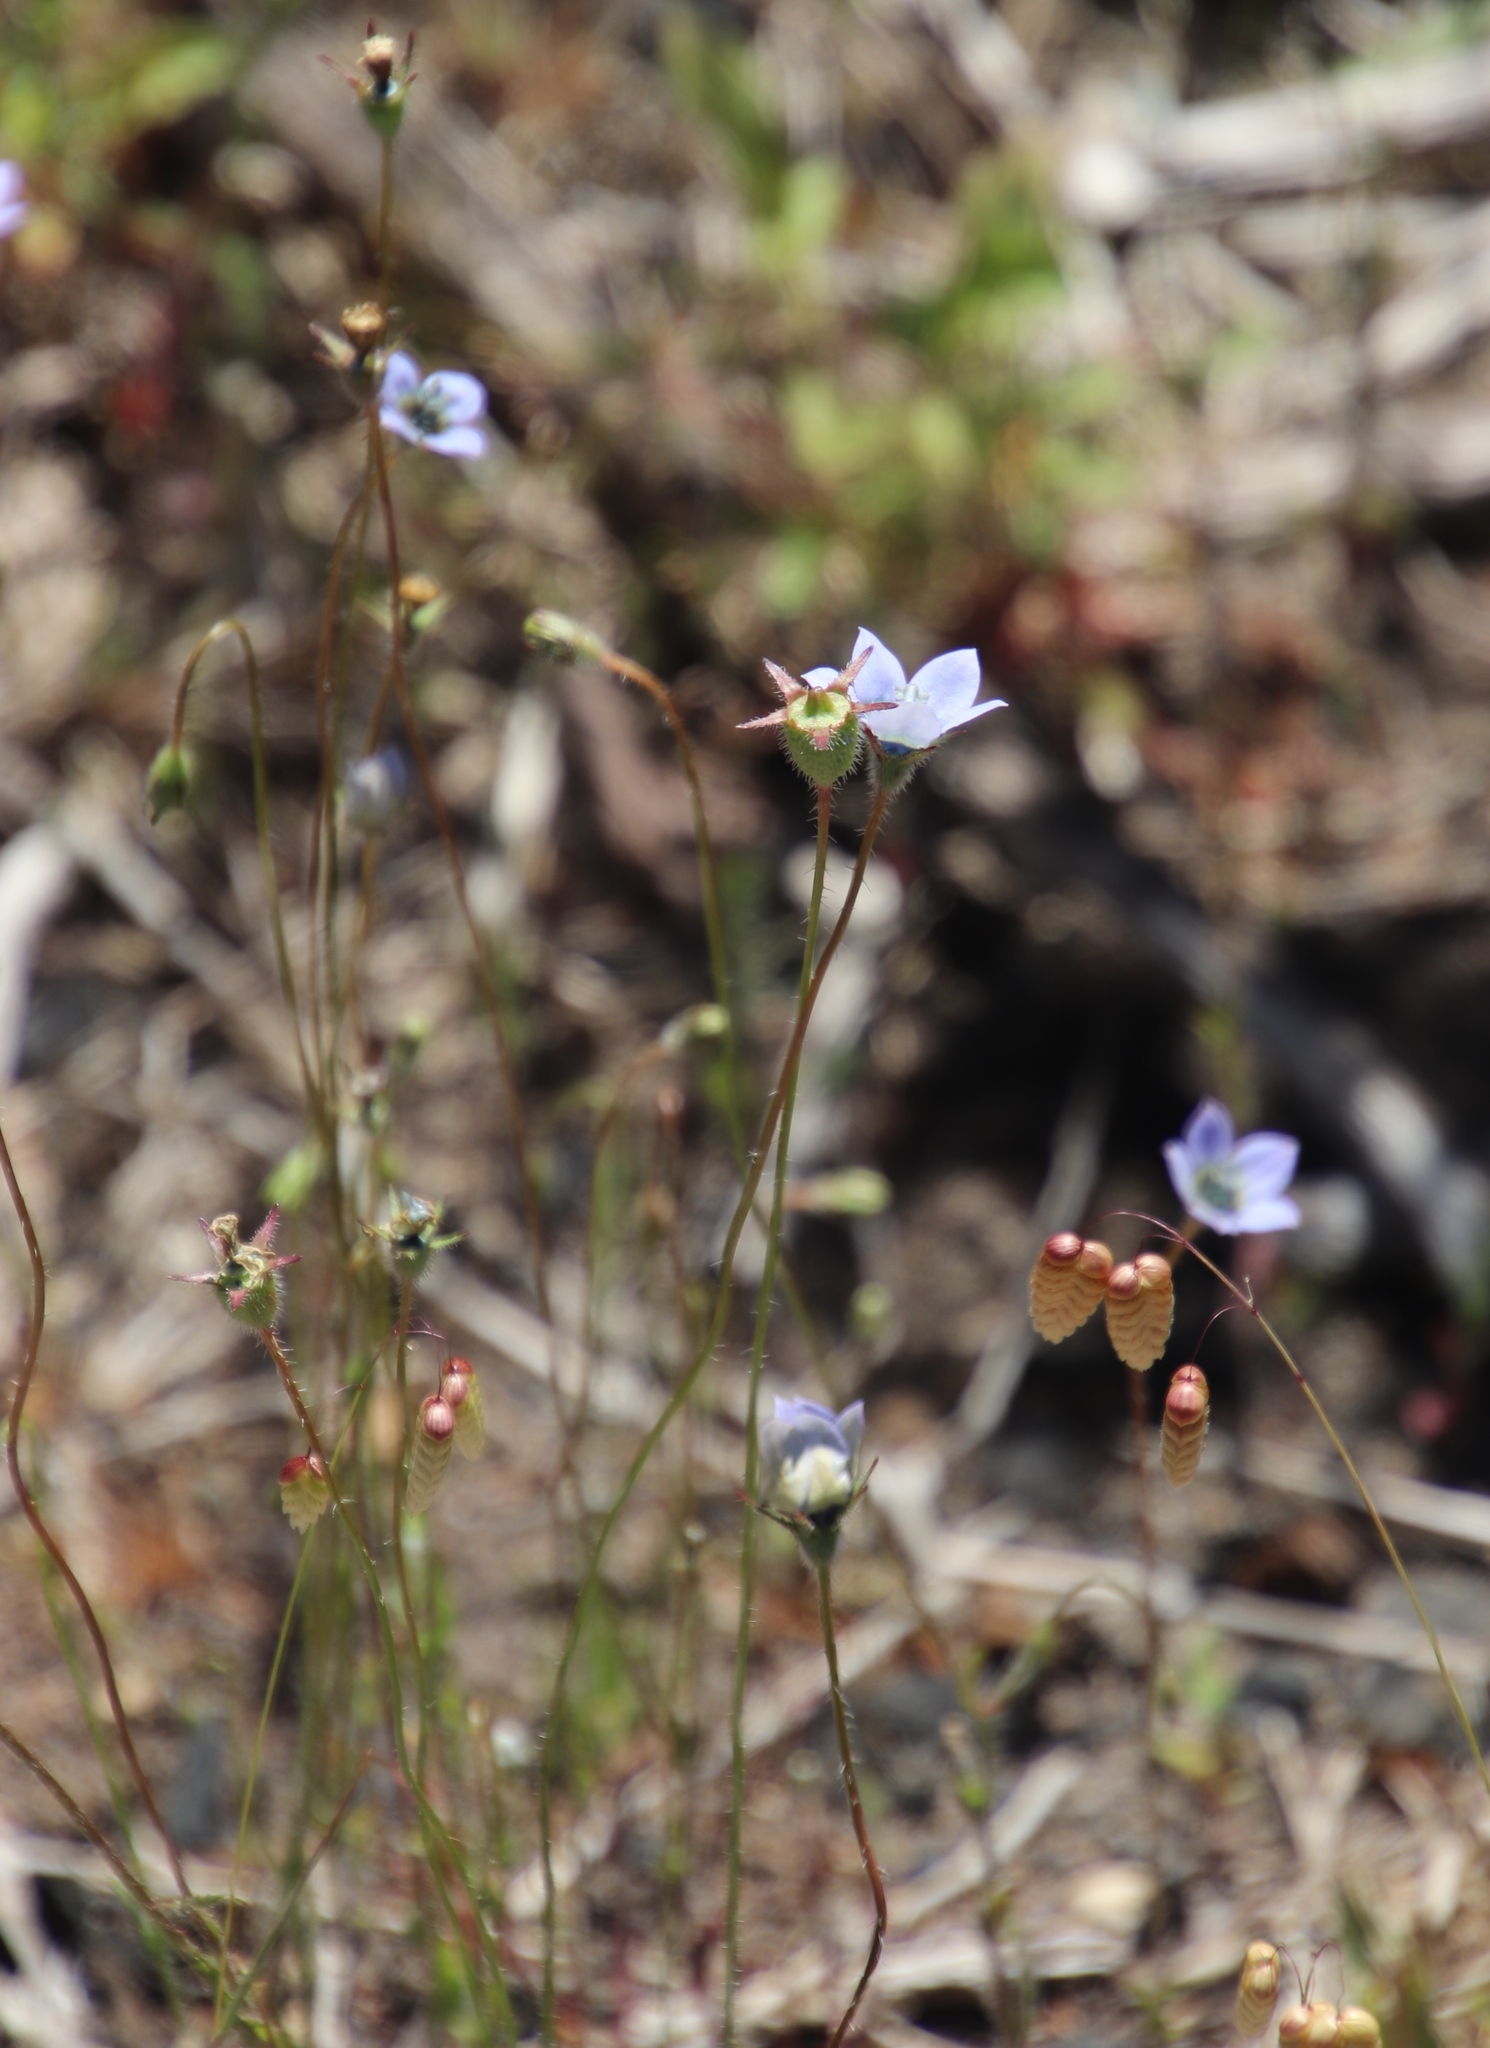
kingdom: Plantae
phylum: Tracheophyta
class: Magnoliopsida
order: Asterales
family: Campanulaceae
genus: Wahlenbergia
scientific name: Wahlenbergia capensis
